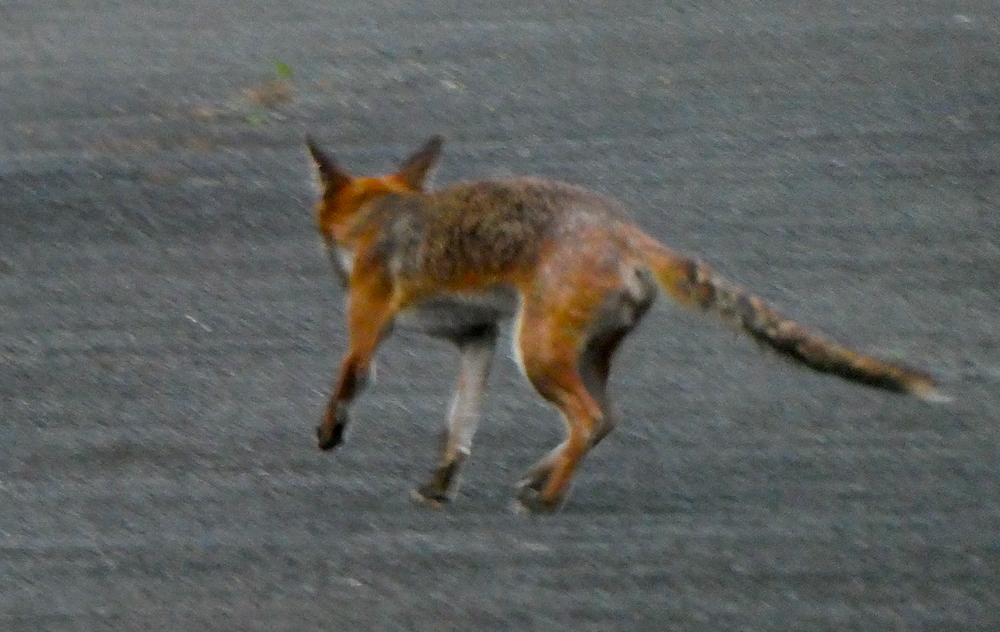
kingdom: Animalia
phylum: Chordata
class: Mammalia
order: Carnivora
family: Canidae
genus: Vulpes
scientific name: Vulpes vulpes
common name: Red fox
